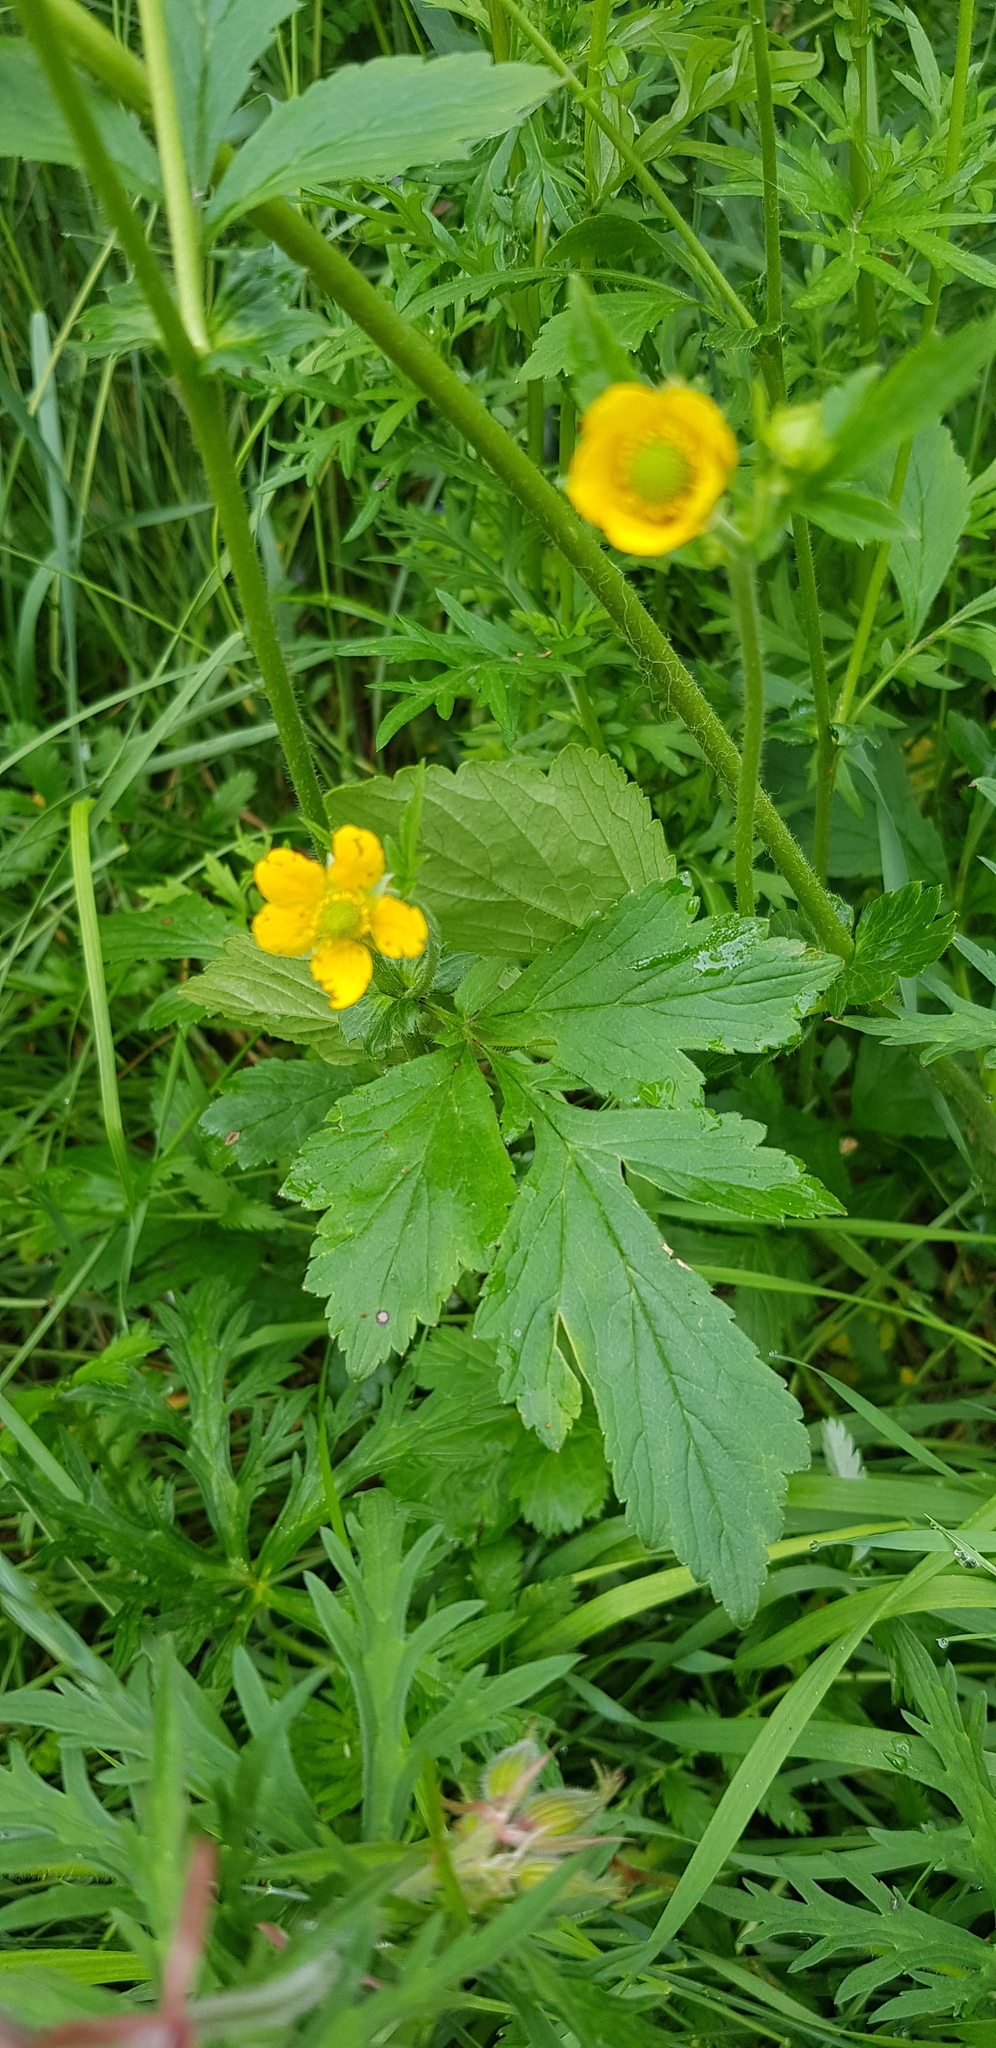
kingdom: Plantae
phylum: Tracheophyta
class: Magnoliopsida
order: Rosales
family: Rosaceae
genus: Geum
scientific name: Geum aleppicum
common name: Yellow avens
